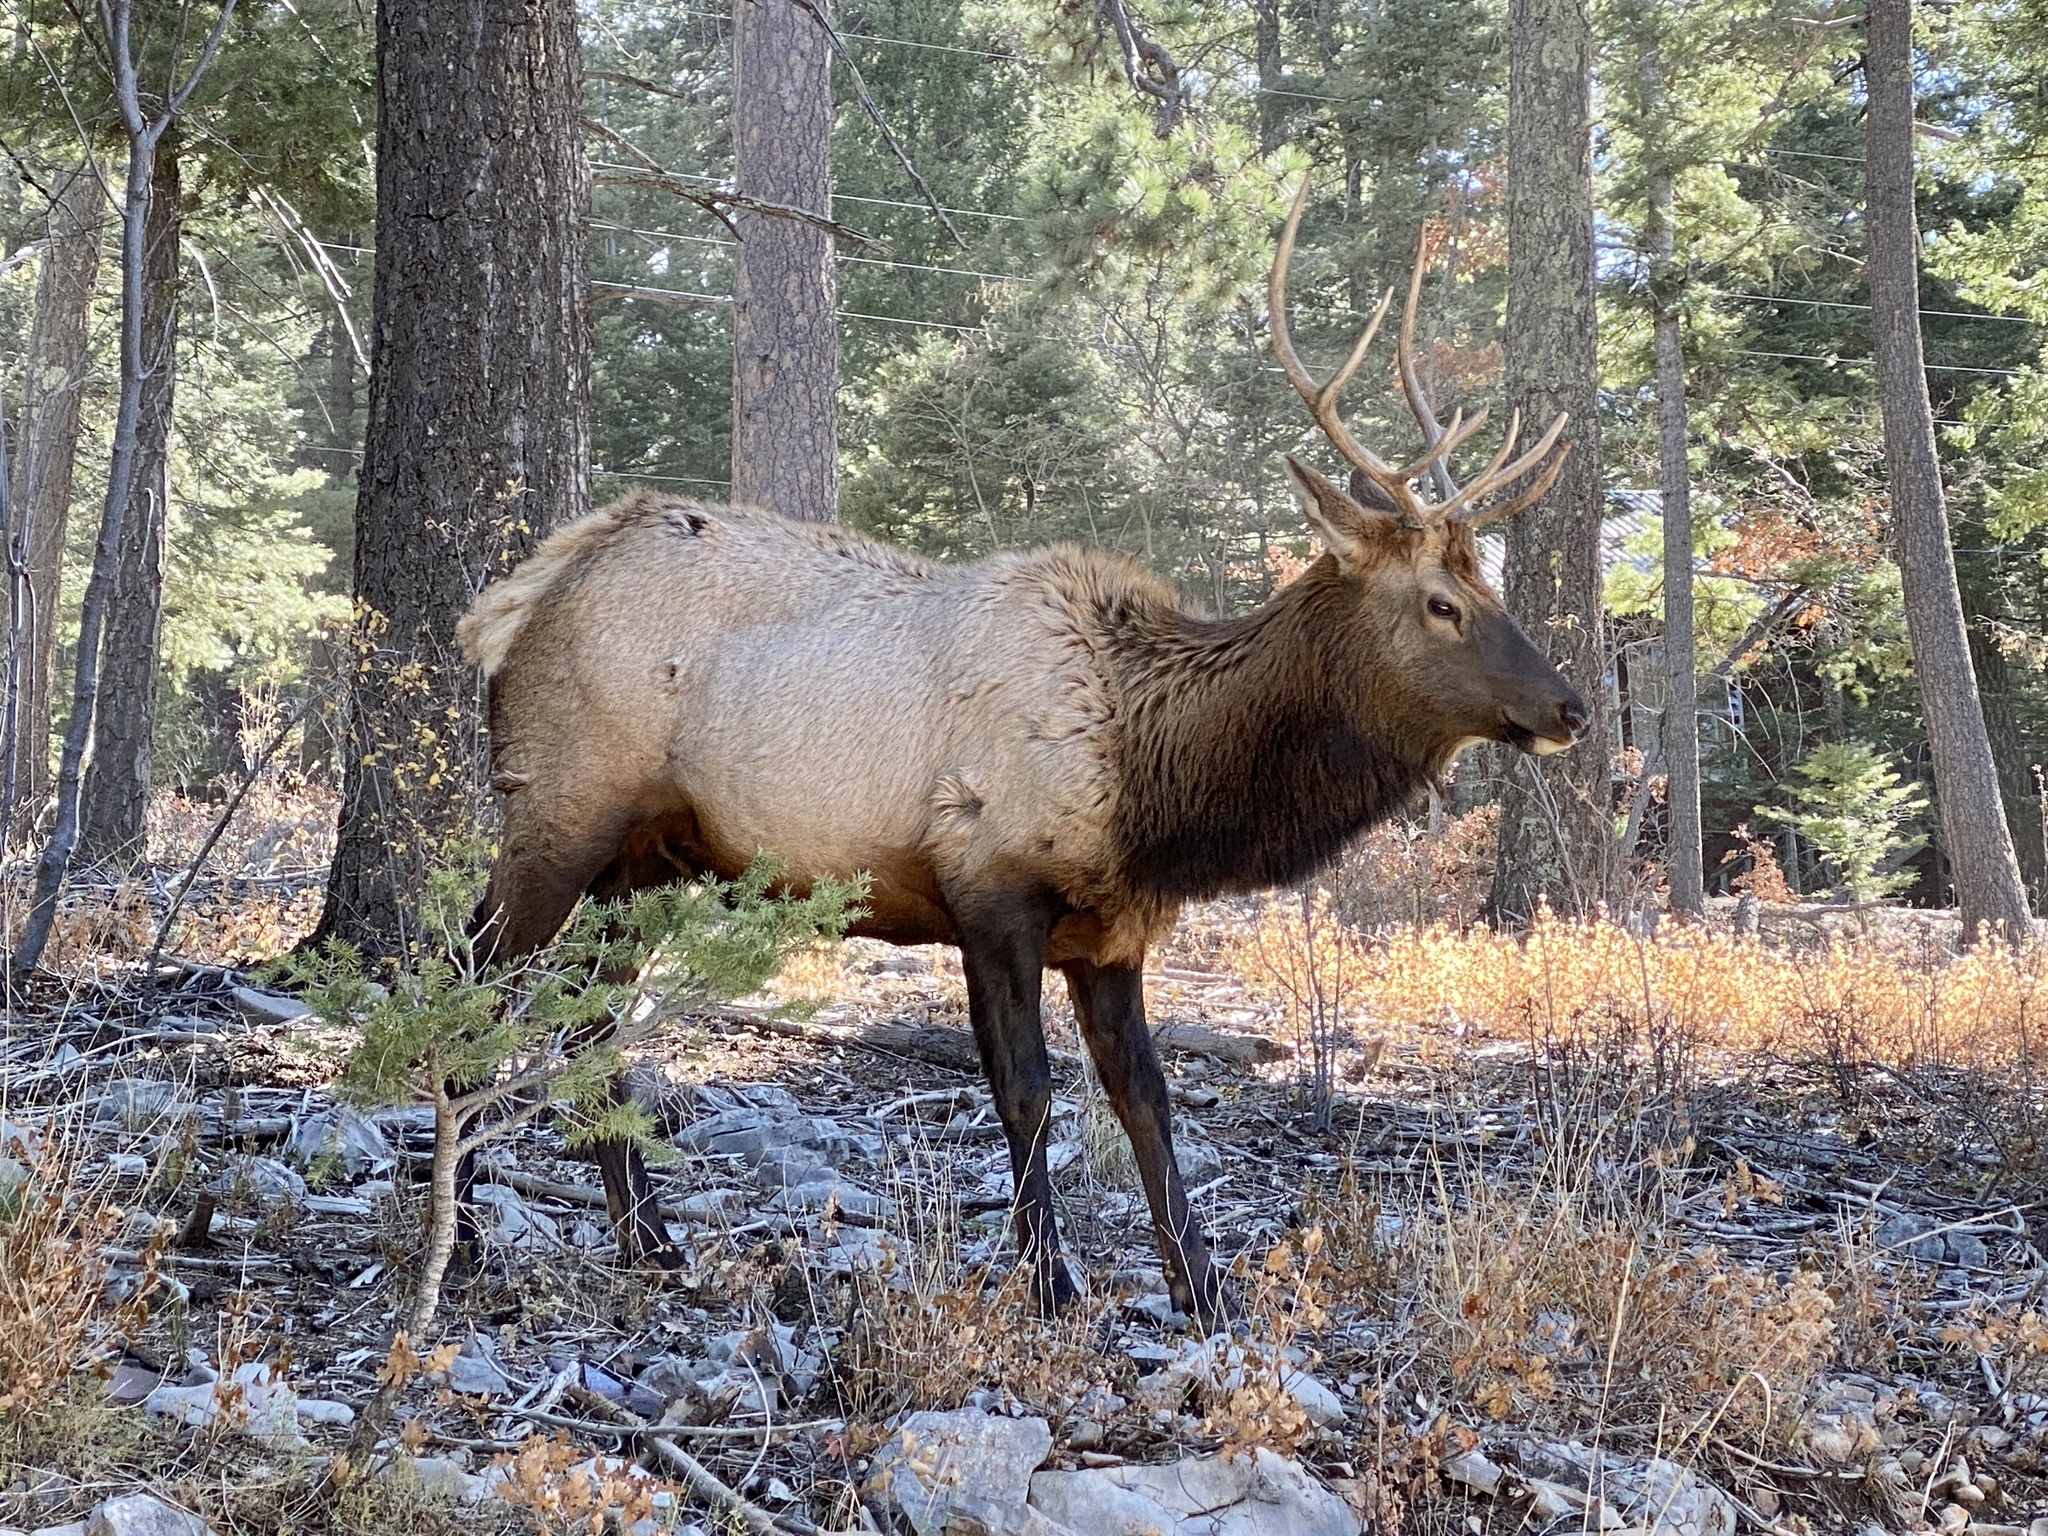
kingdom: Animalia
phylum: Chordata
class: Mammalia
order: Artiodactyla
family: Cervidae
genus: Cervus
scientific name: Cervus elaphus
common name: Red deer
